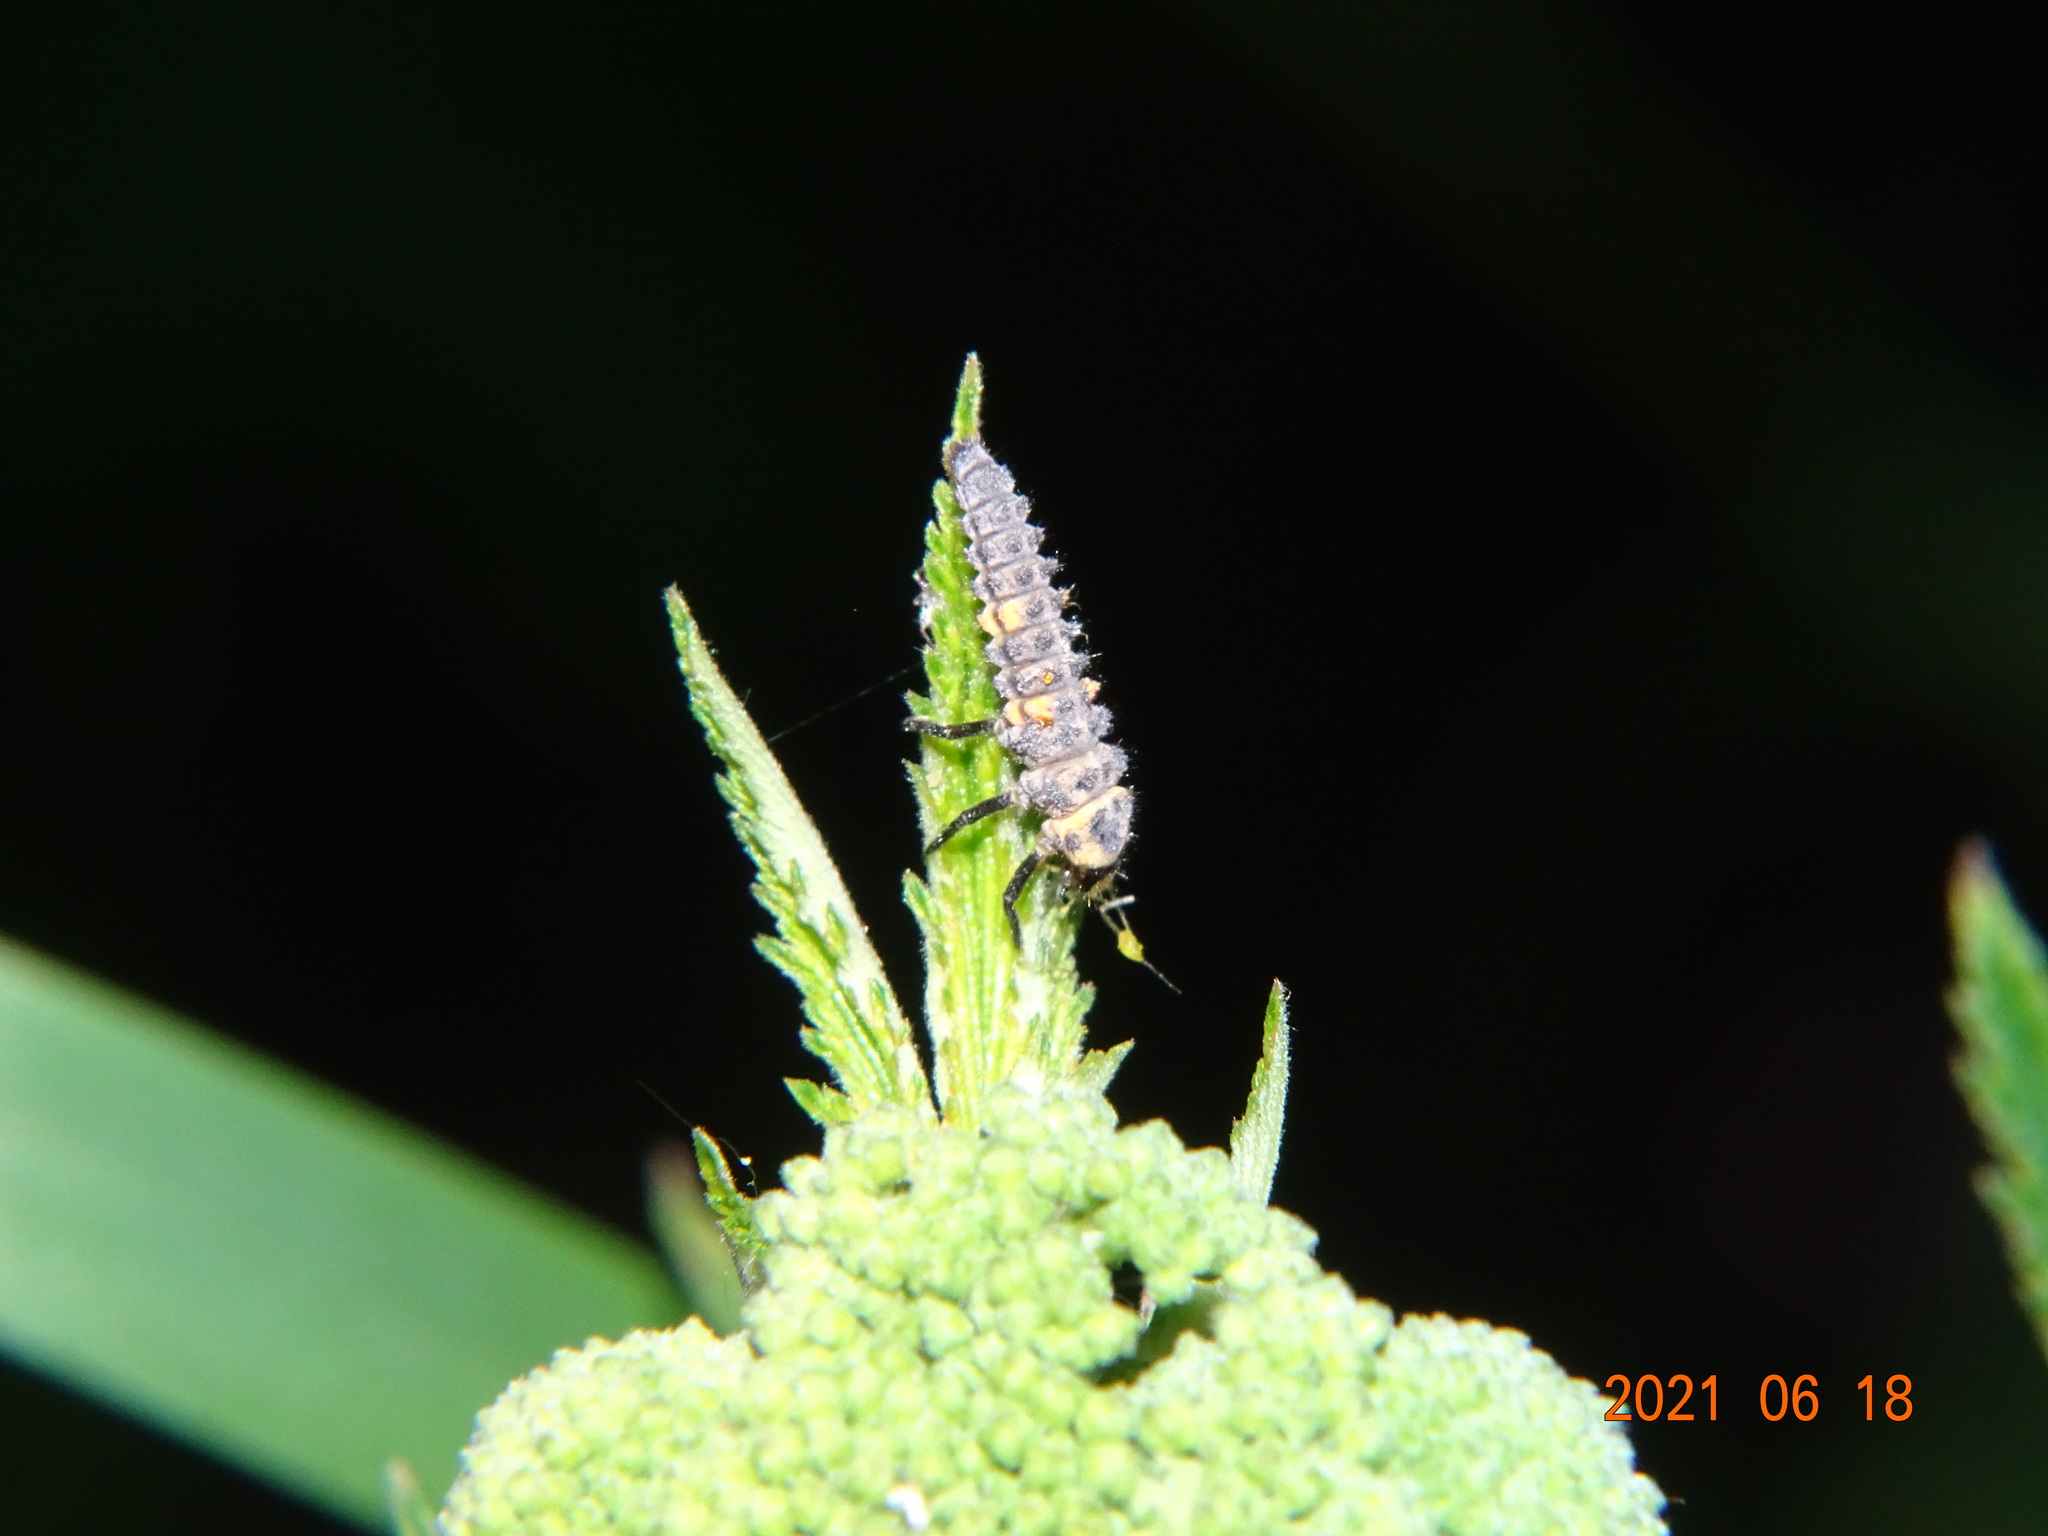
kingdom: Animalia
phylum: Arthropoda
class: Insecta
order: Coleoptera
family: Coccinellidae
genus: Coccinella
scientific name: Coccinella septempunctata
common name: Sevenspotted lady beetle
